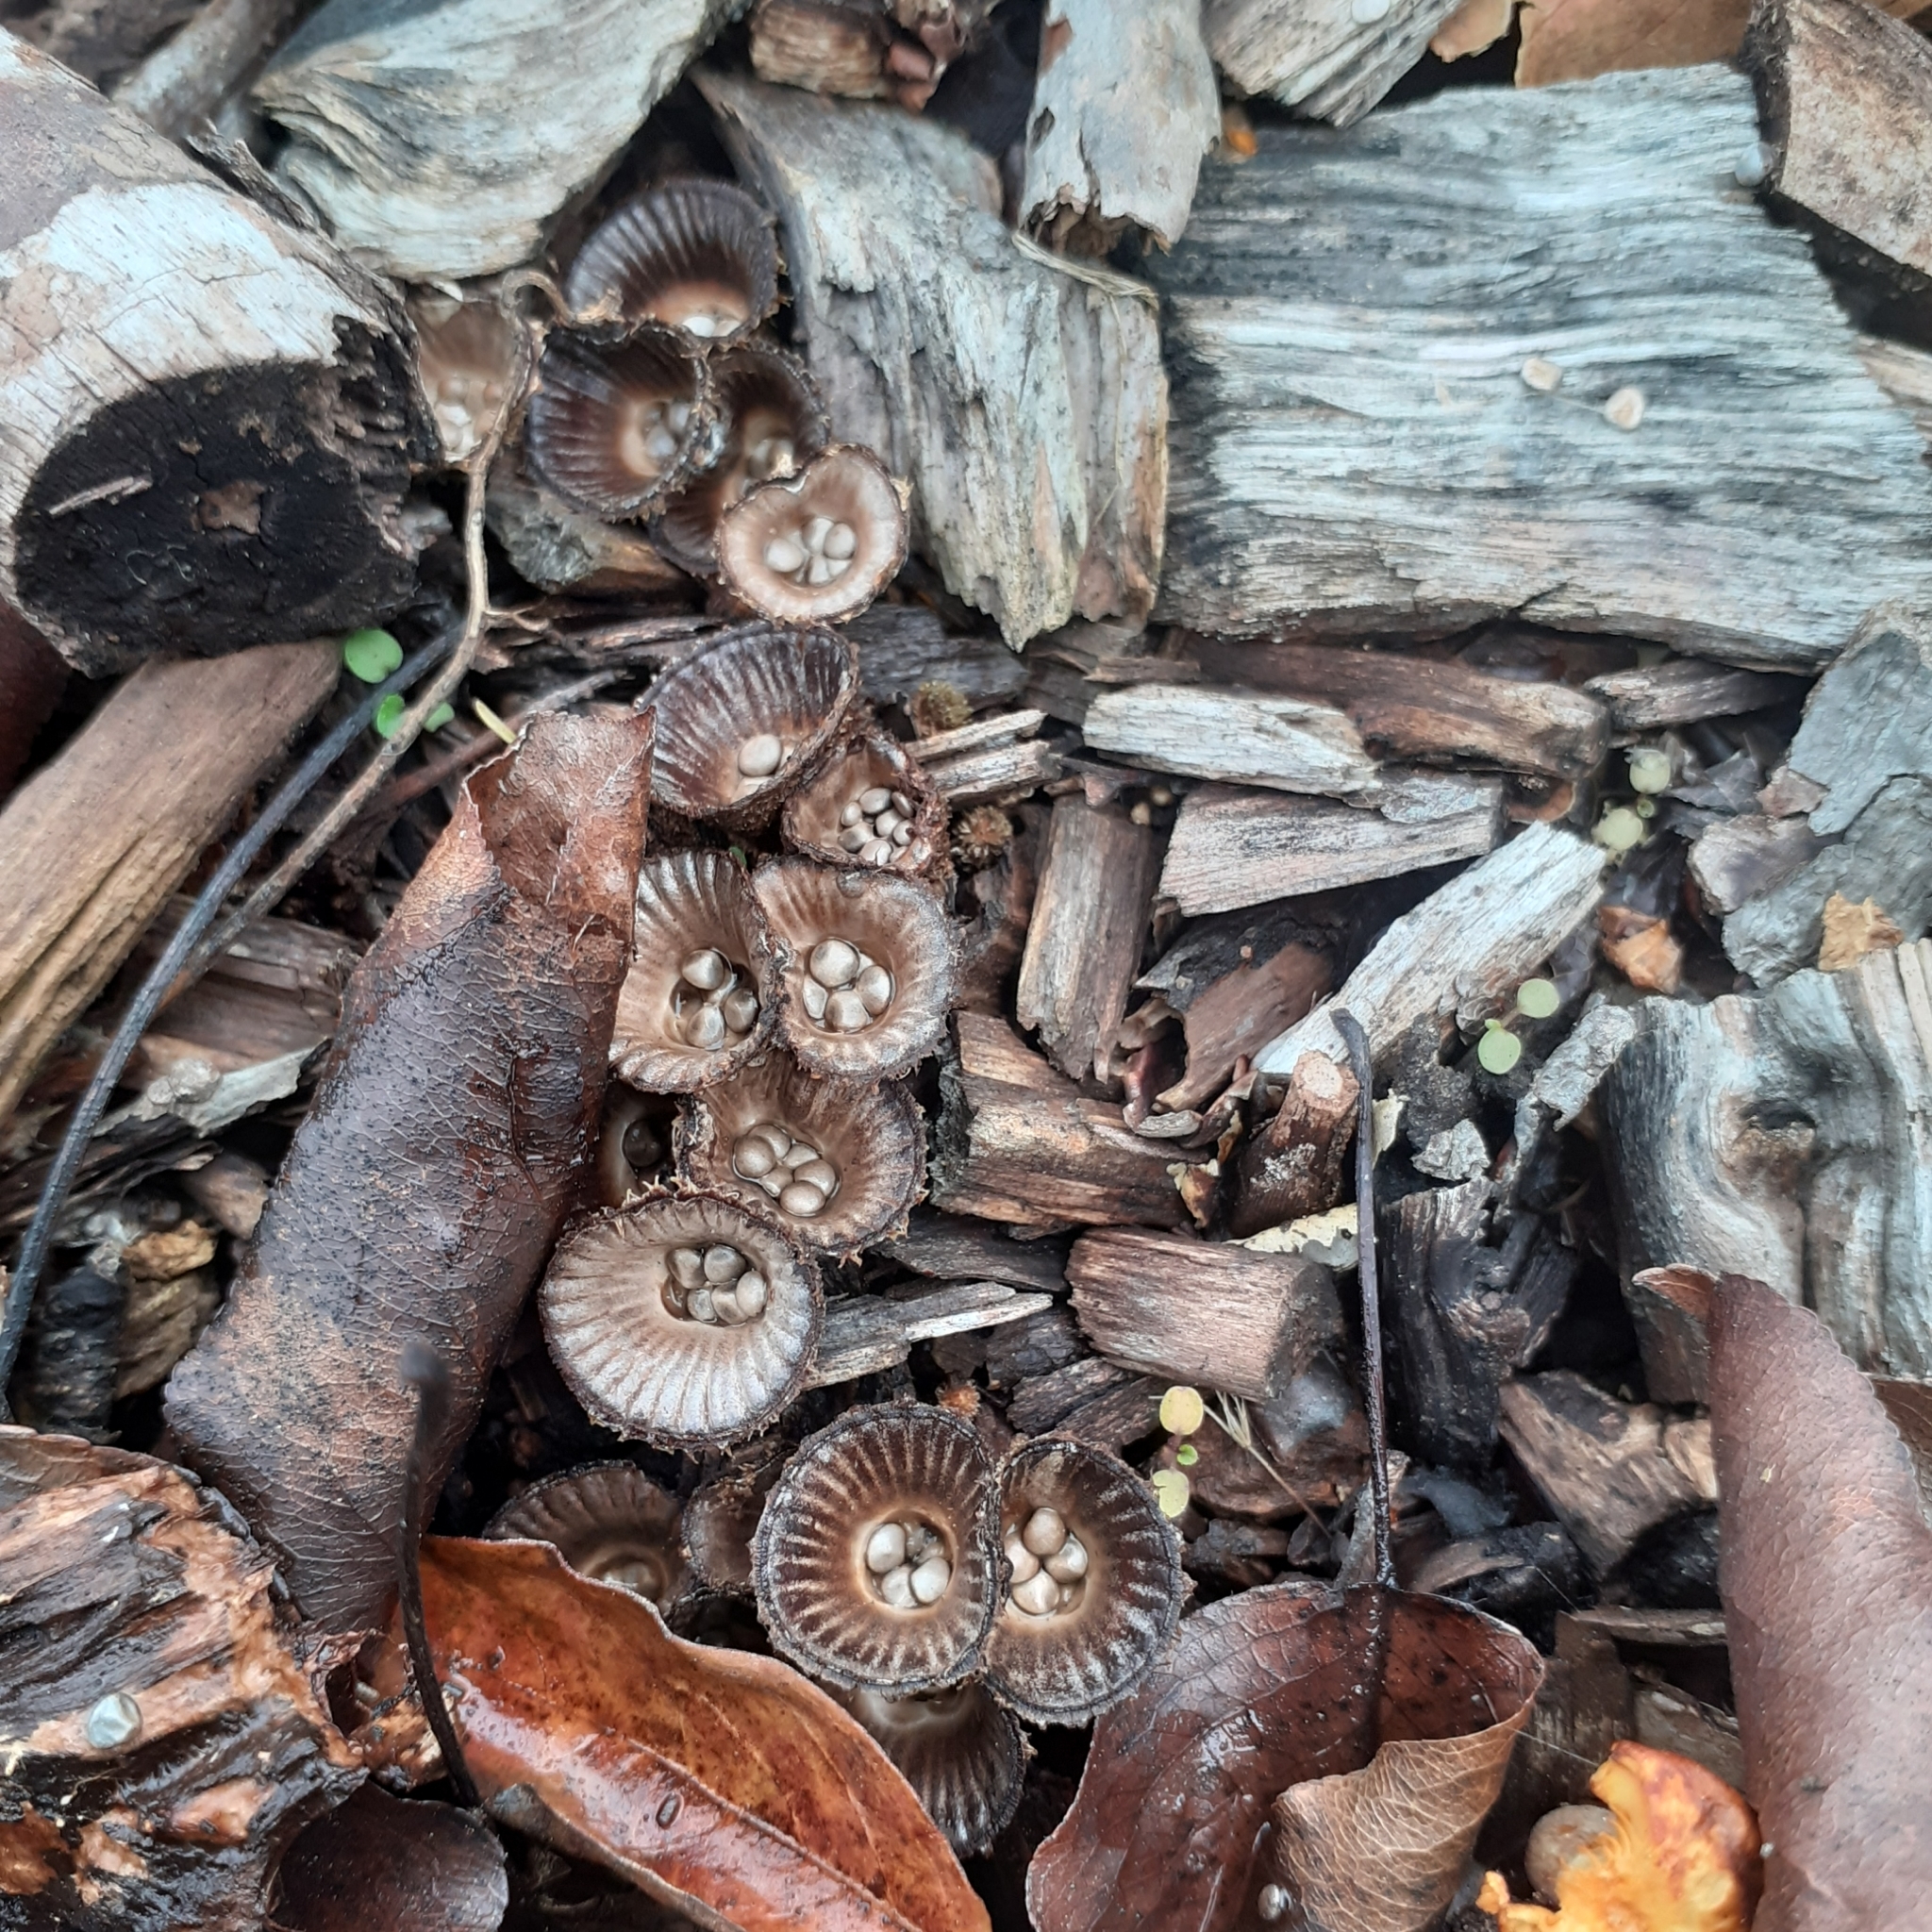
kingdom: Fungi
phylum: Basidiomycota
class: Agaricomycetes
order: Agaricales
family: Agaricaceae
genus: Cyathus
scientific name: Cyathus
